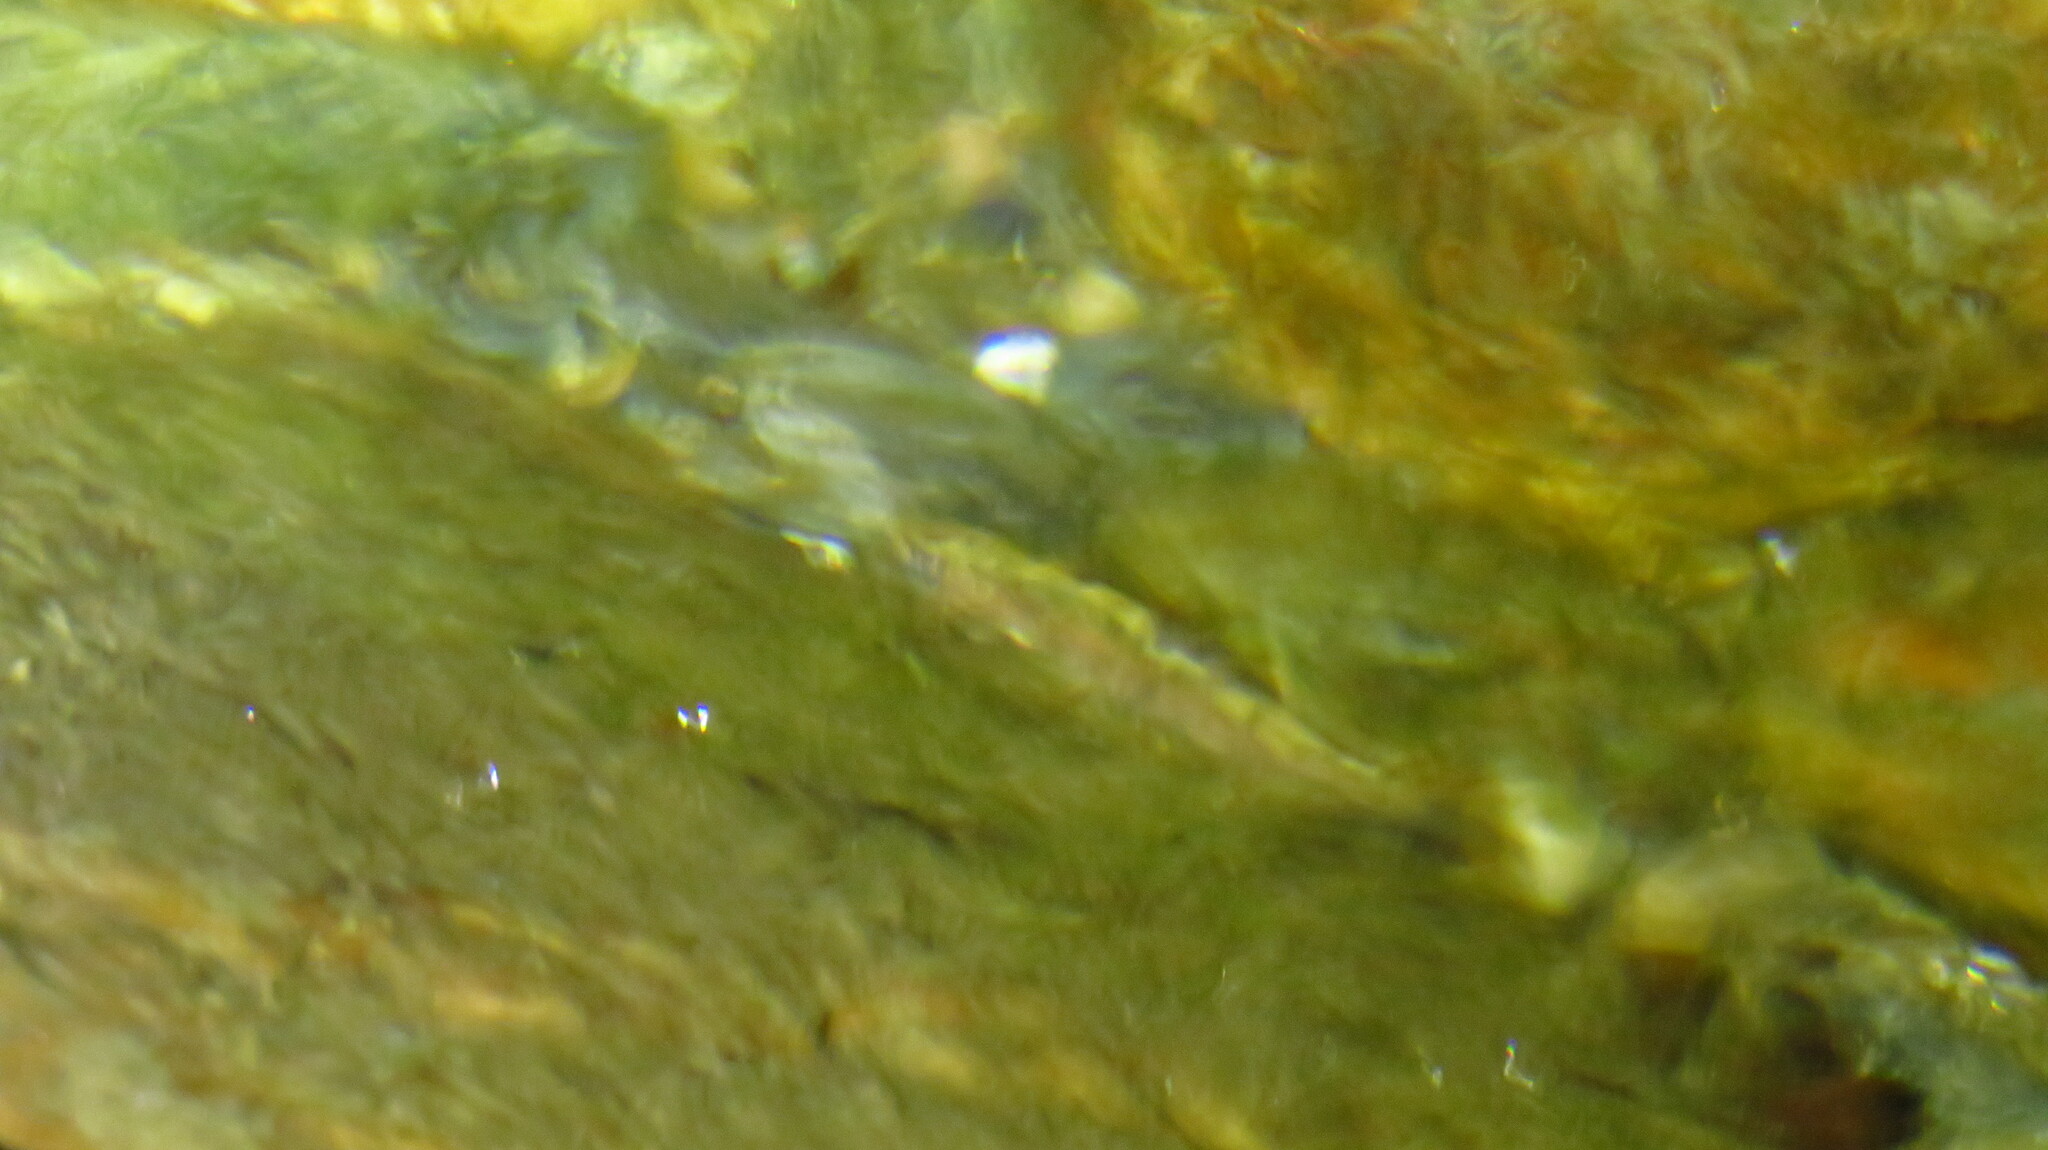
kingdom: Animalia
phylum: Chordata
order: Salmoniformes
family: Salmonidae
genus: Salmo
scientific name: Salmo trutta
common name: Brown trout
